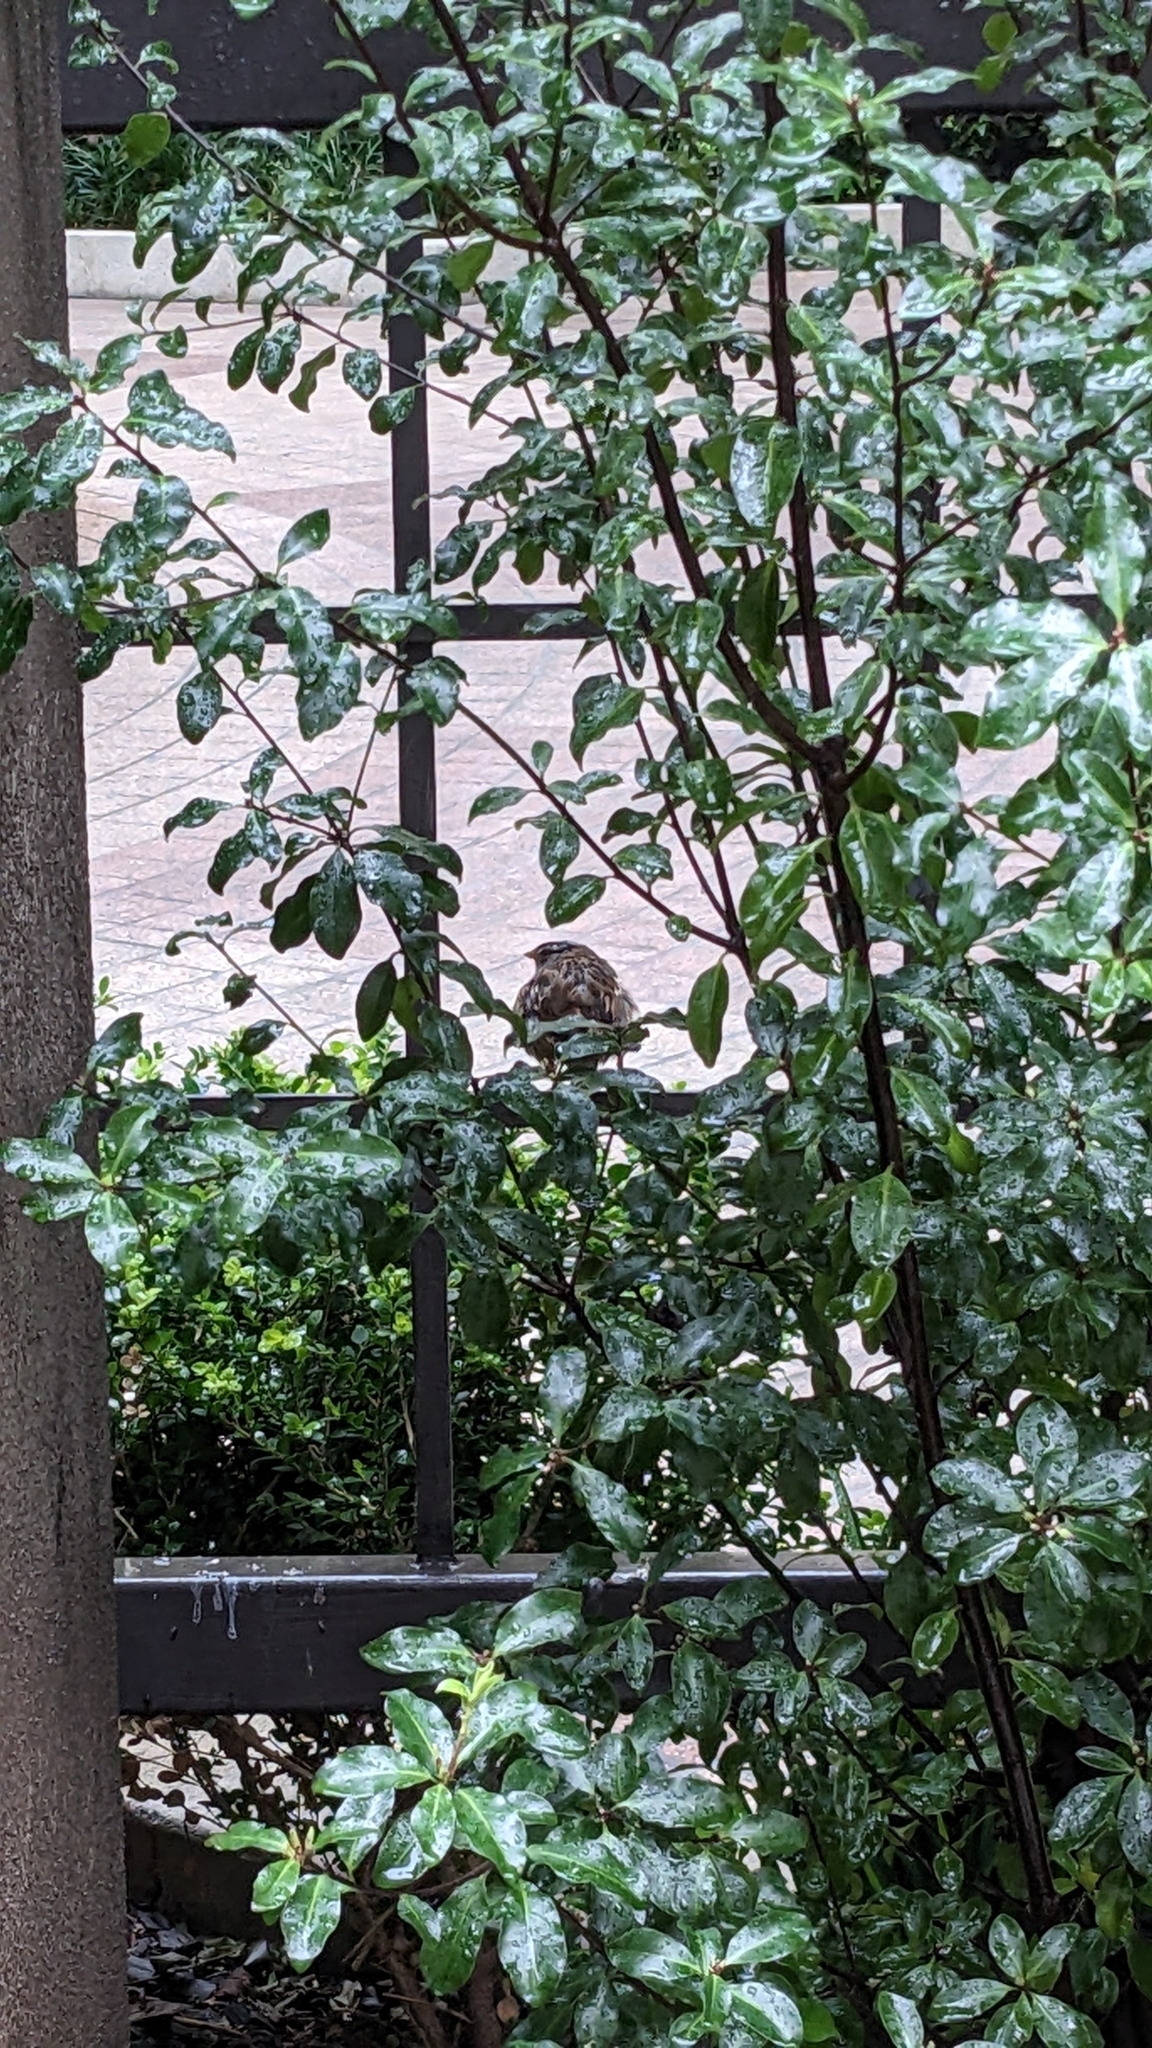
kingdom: Animalia
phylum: Chordata
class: Aves
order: Passeriformes
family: Passerellidae
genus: Zonotrichia
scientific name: Zonotrichia leucophrys
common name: White-crowned sparrow
